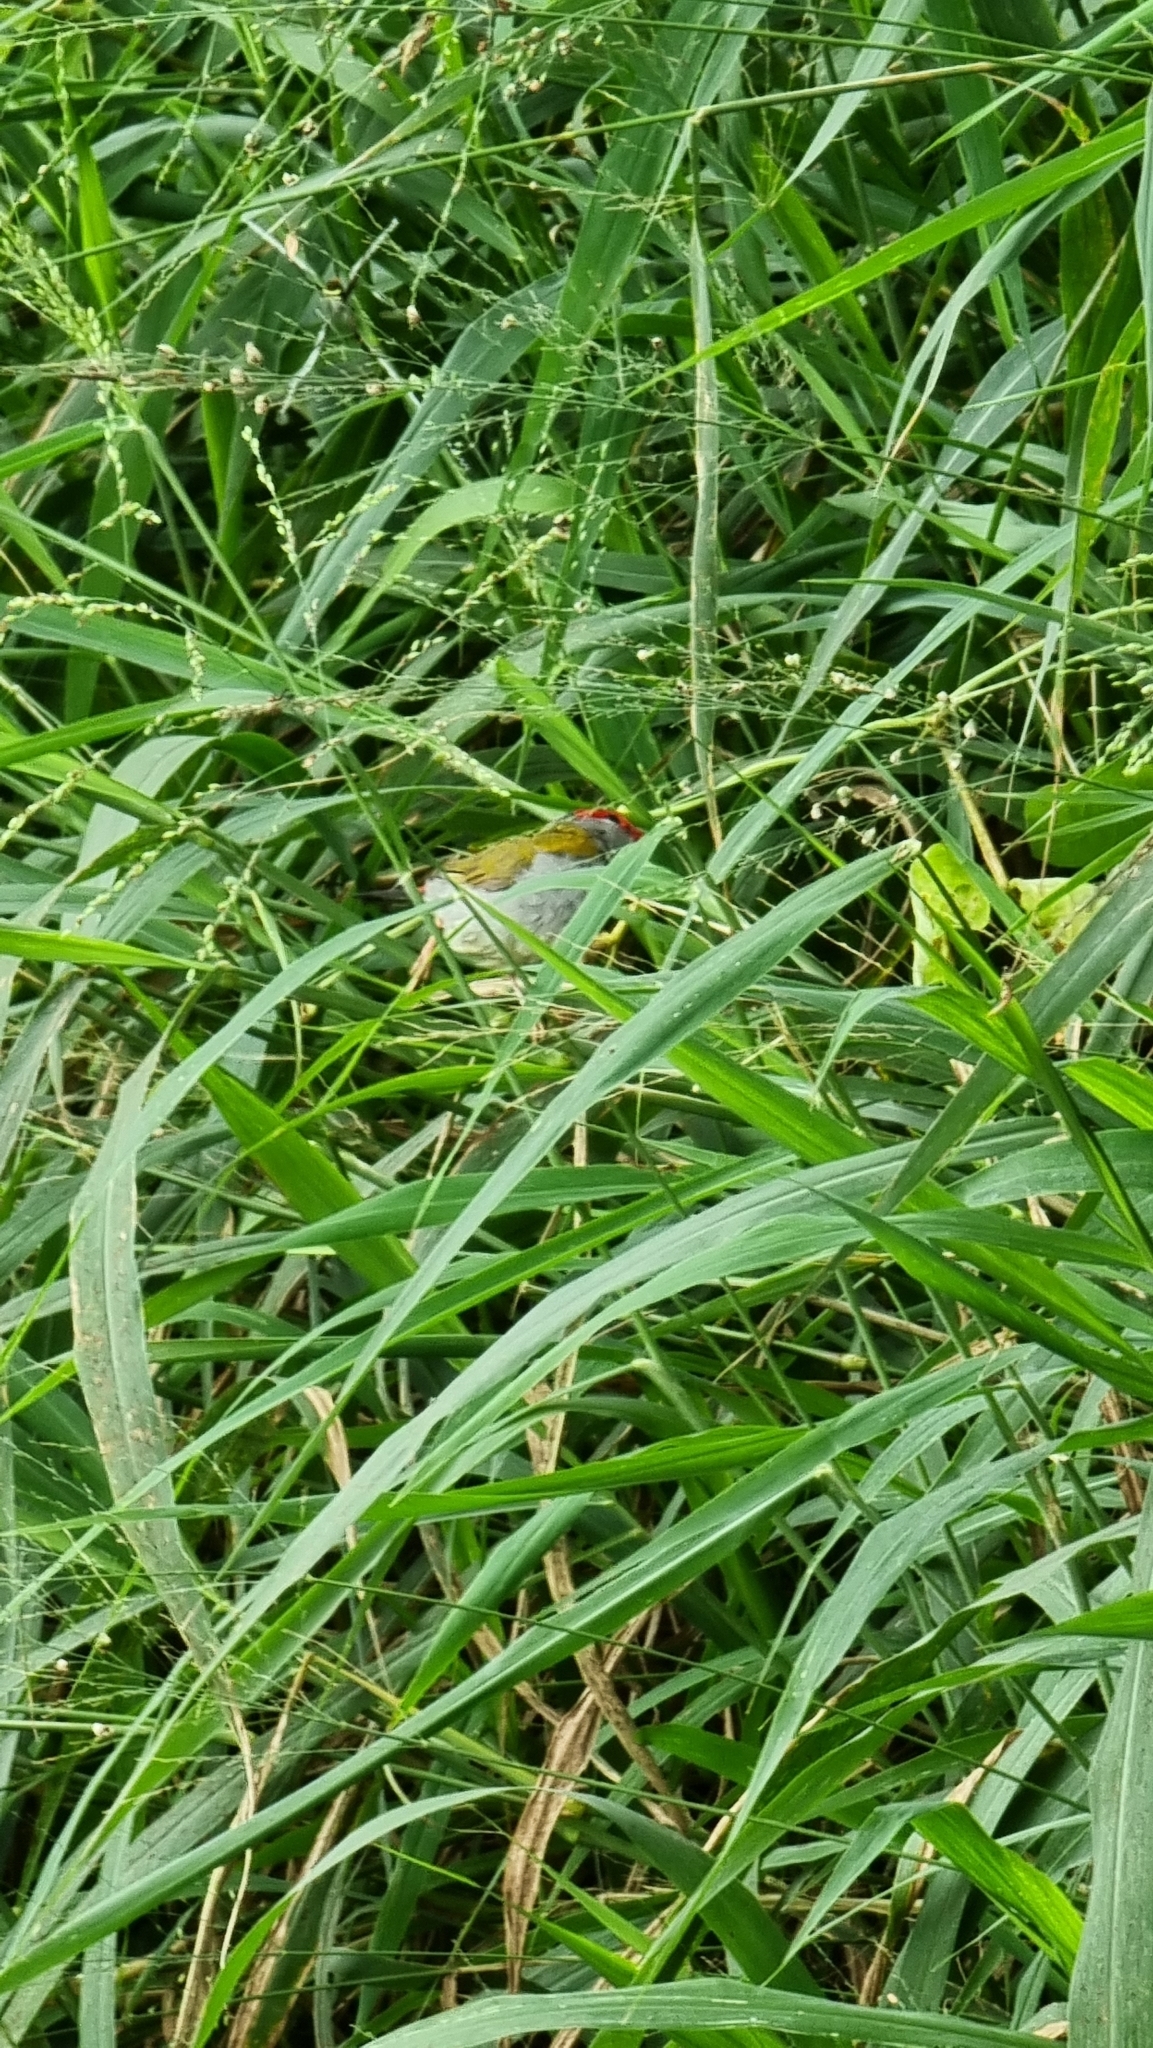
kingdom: Animalia
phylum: Chordata
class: Aves
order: Passeriformes
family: Estrildidae
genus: Neochmia
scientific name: Neochmia temporalis
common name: Red-browed finch
